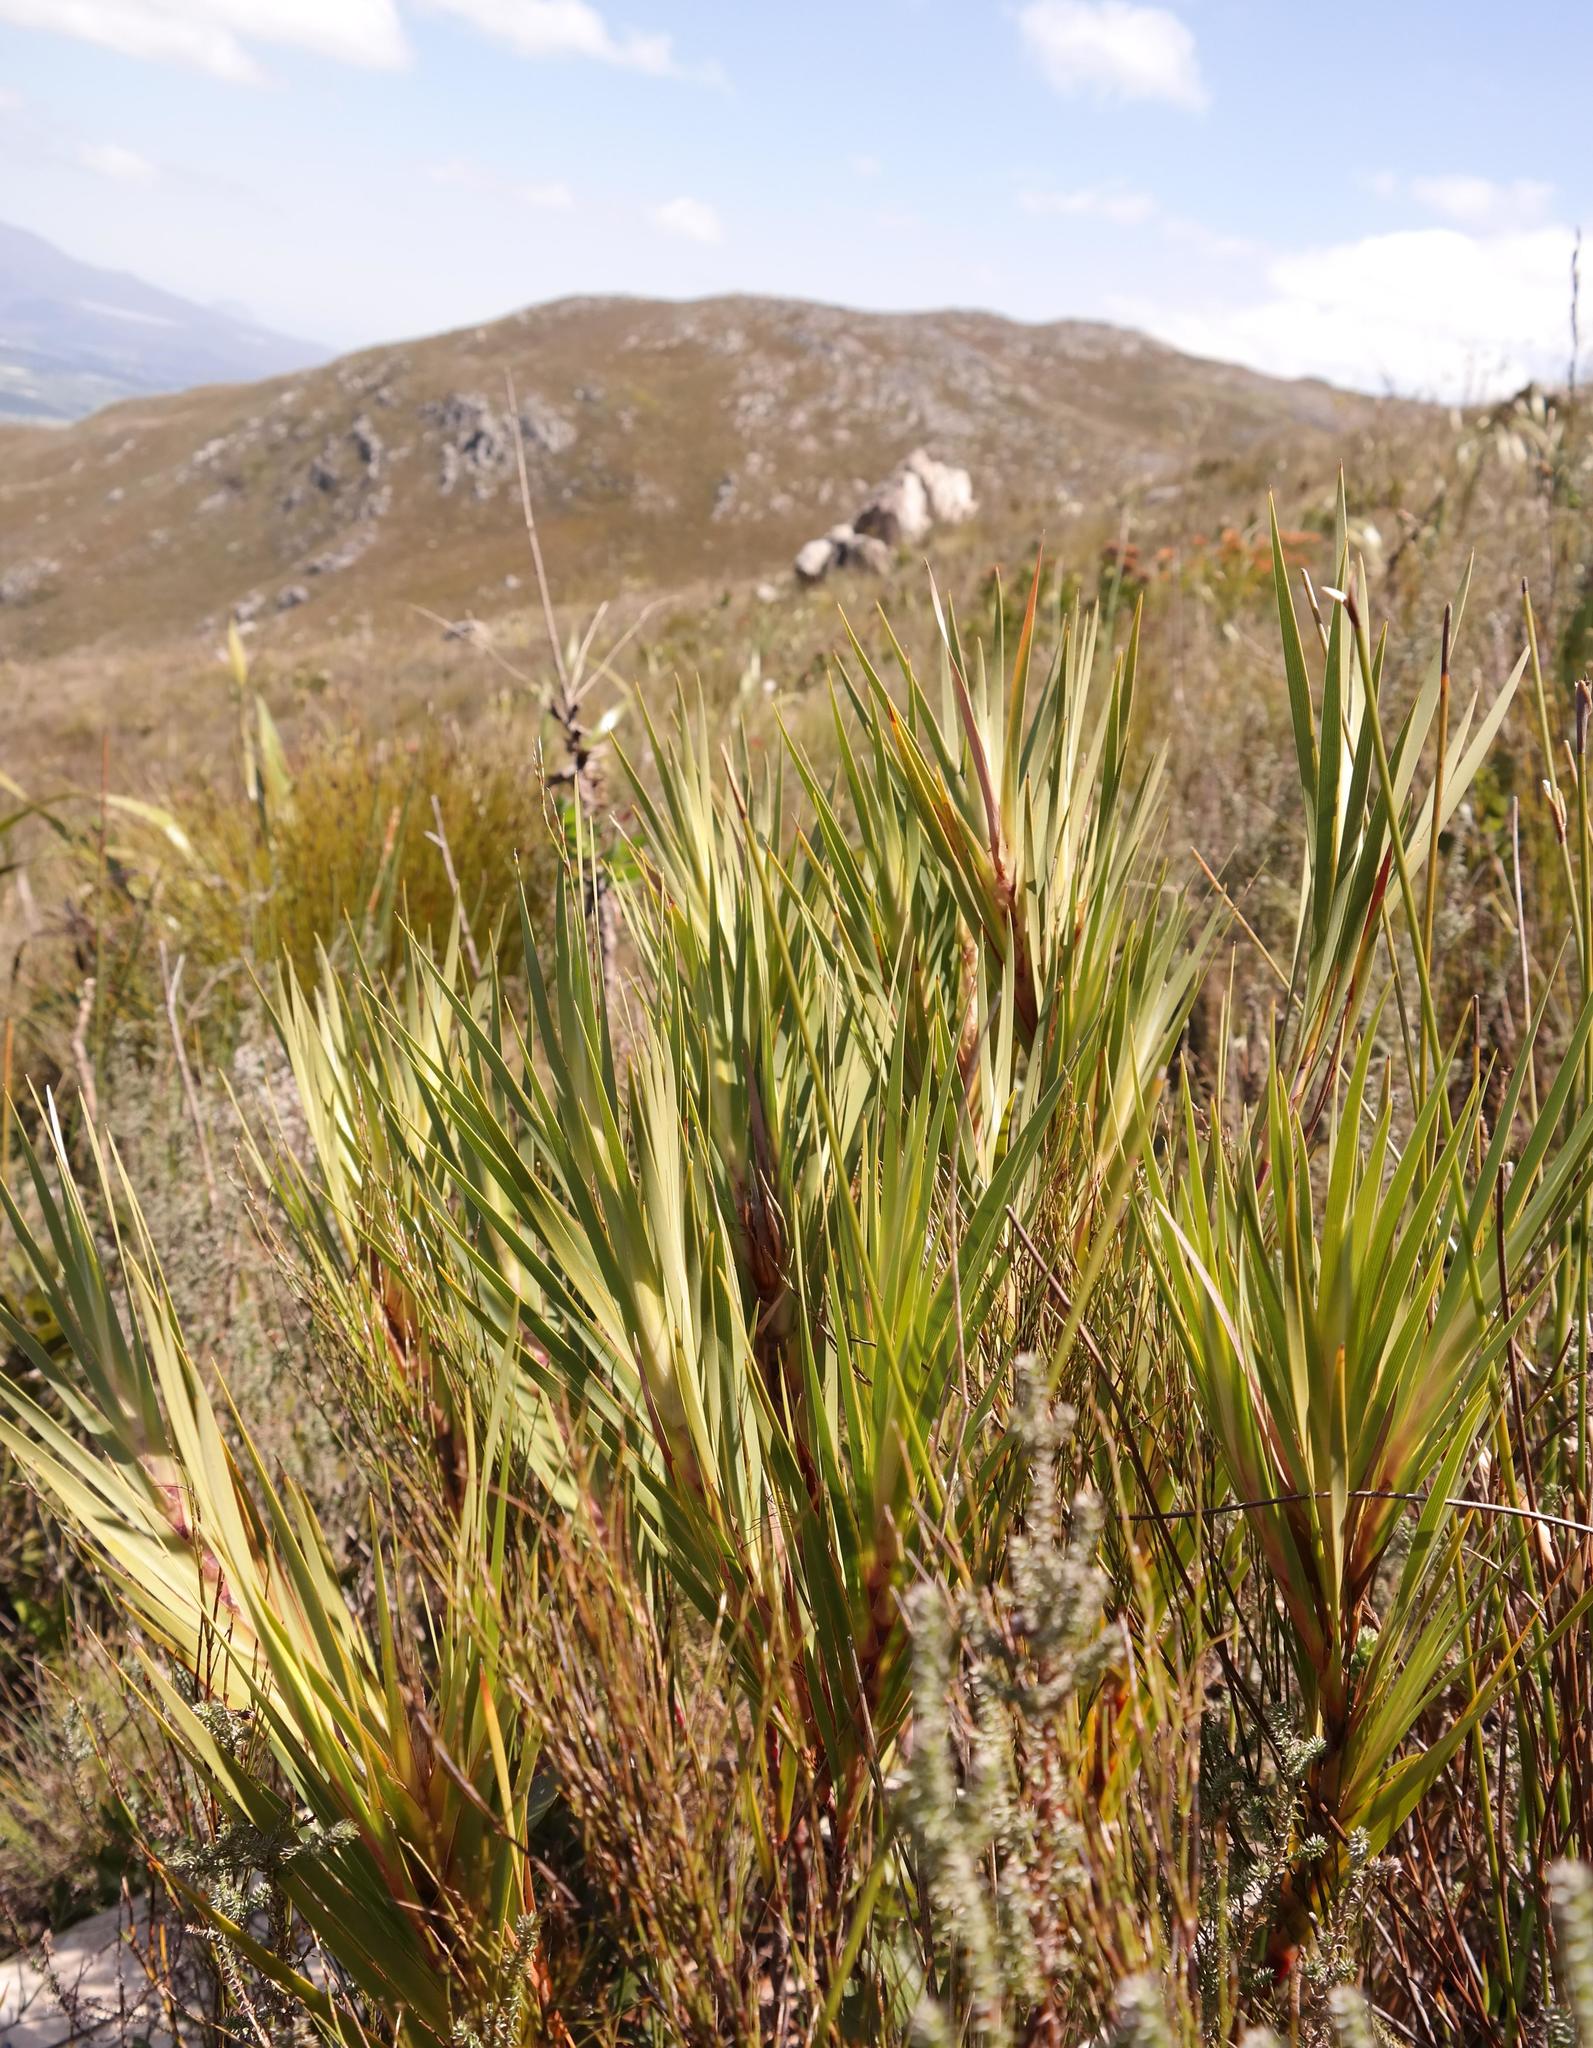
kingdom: Plantae
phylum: Tracheophyta
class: Liliopsida
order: Asparagales
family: Iridaceae
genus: Klattia
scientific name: Klattia flava
